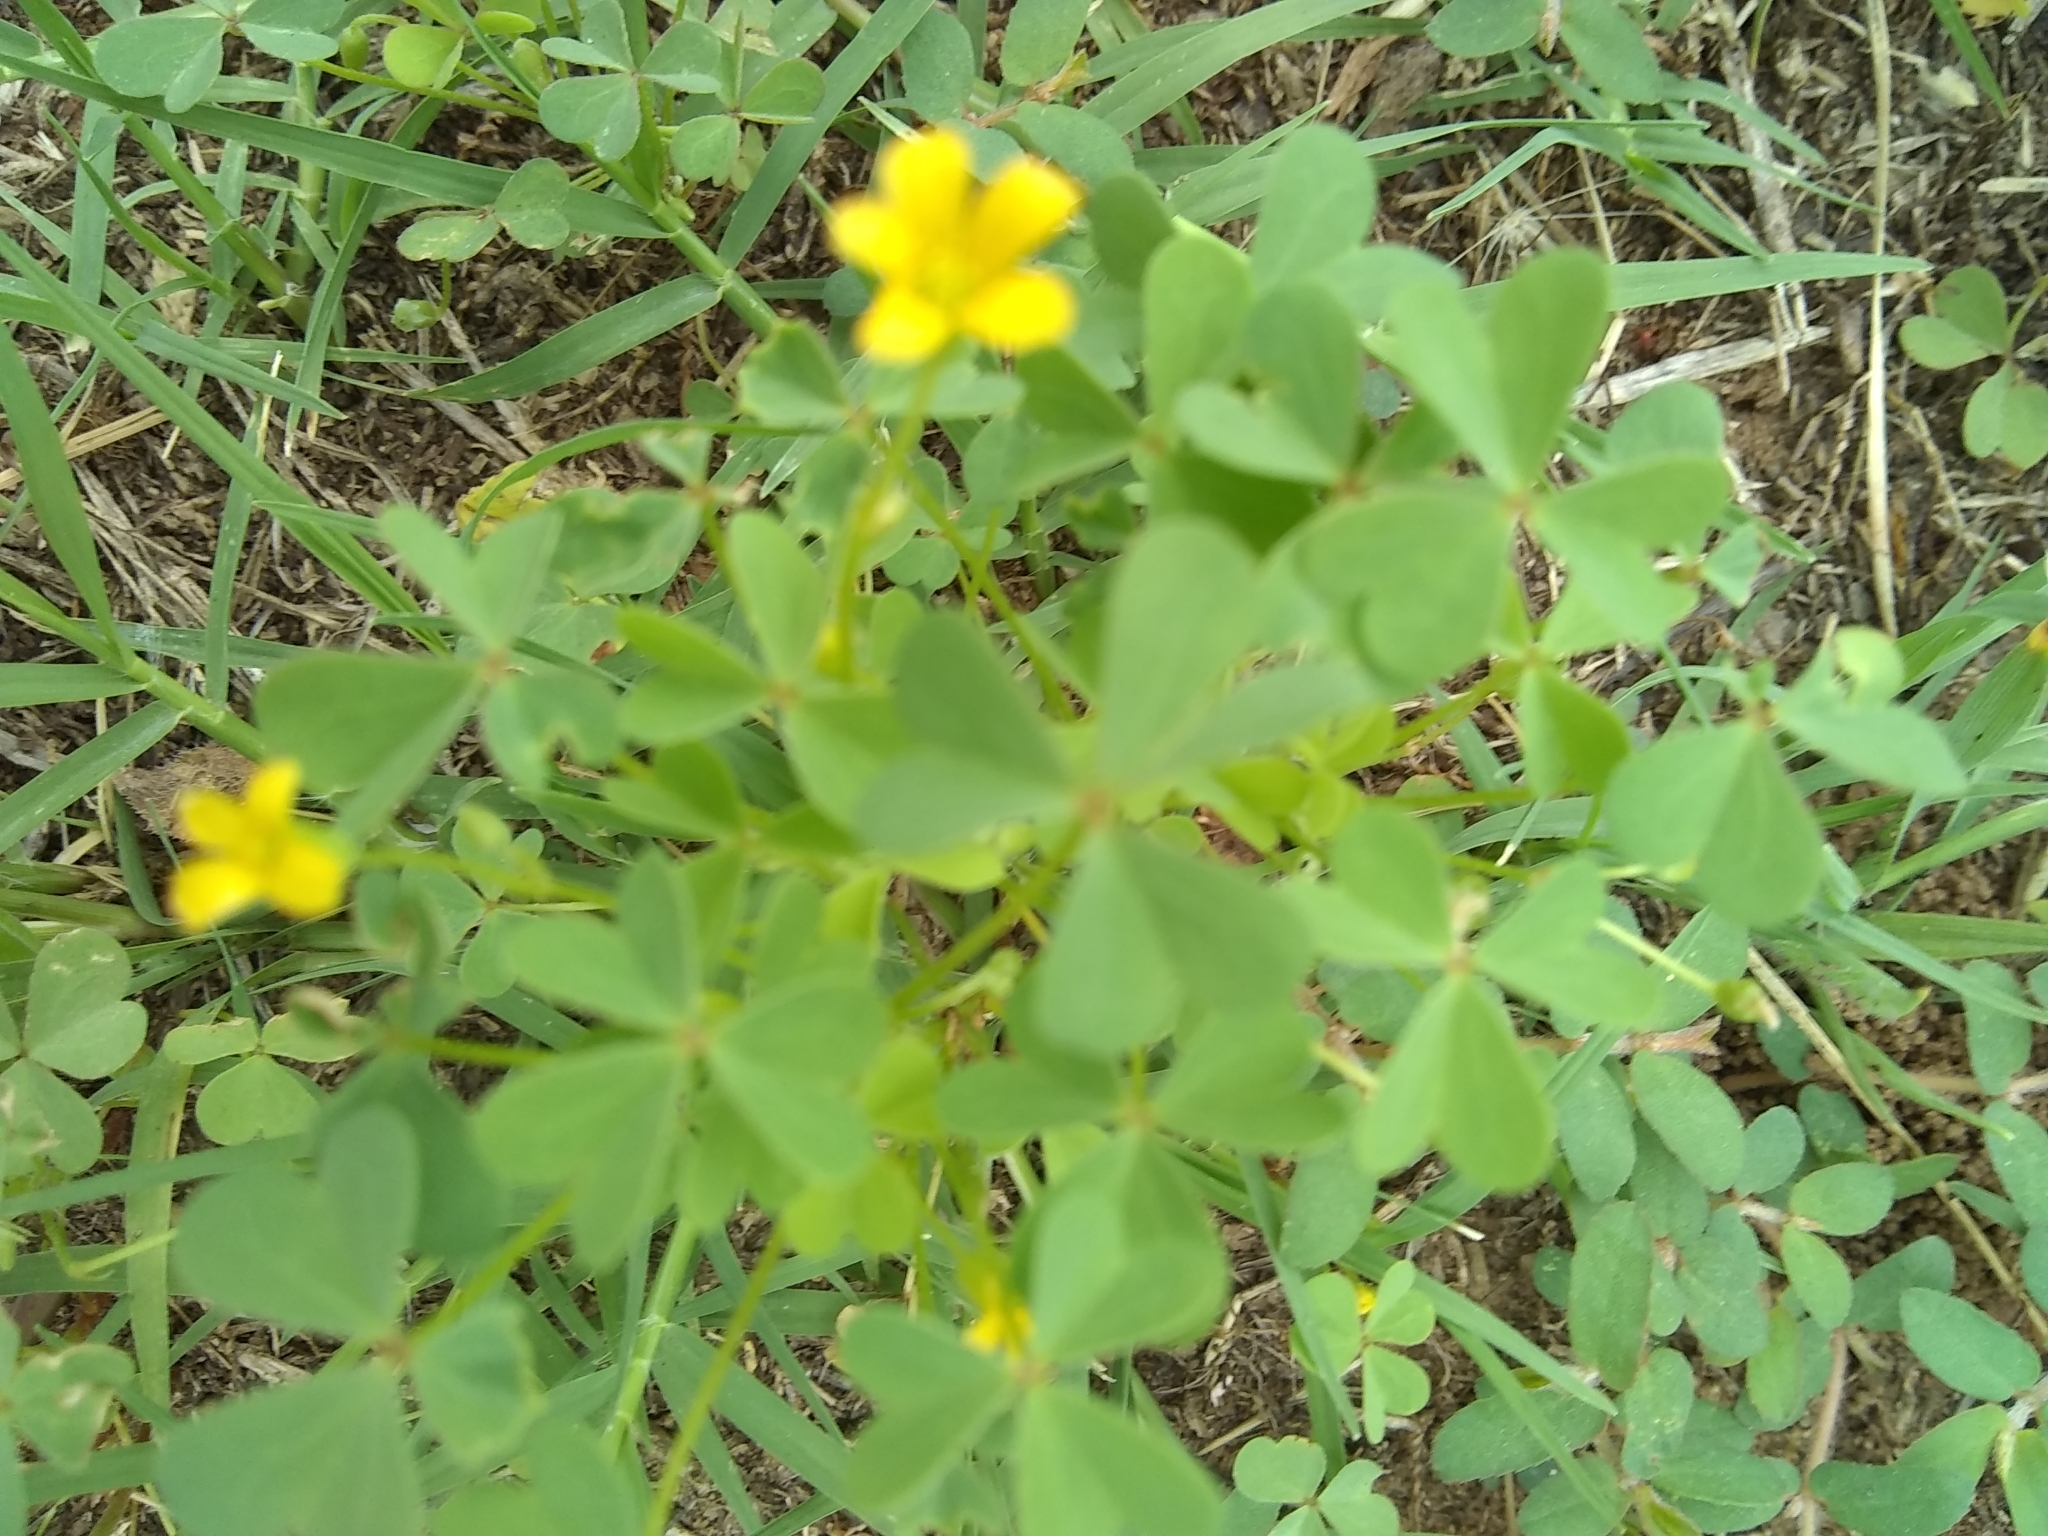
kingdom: Plantae
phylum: Tracheophyta
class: Magnoliopsida
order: Oxalidales
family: Oxalidaceae
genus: Oxalis
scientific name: Oxalis
